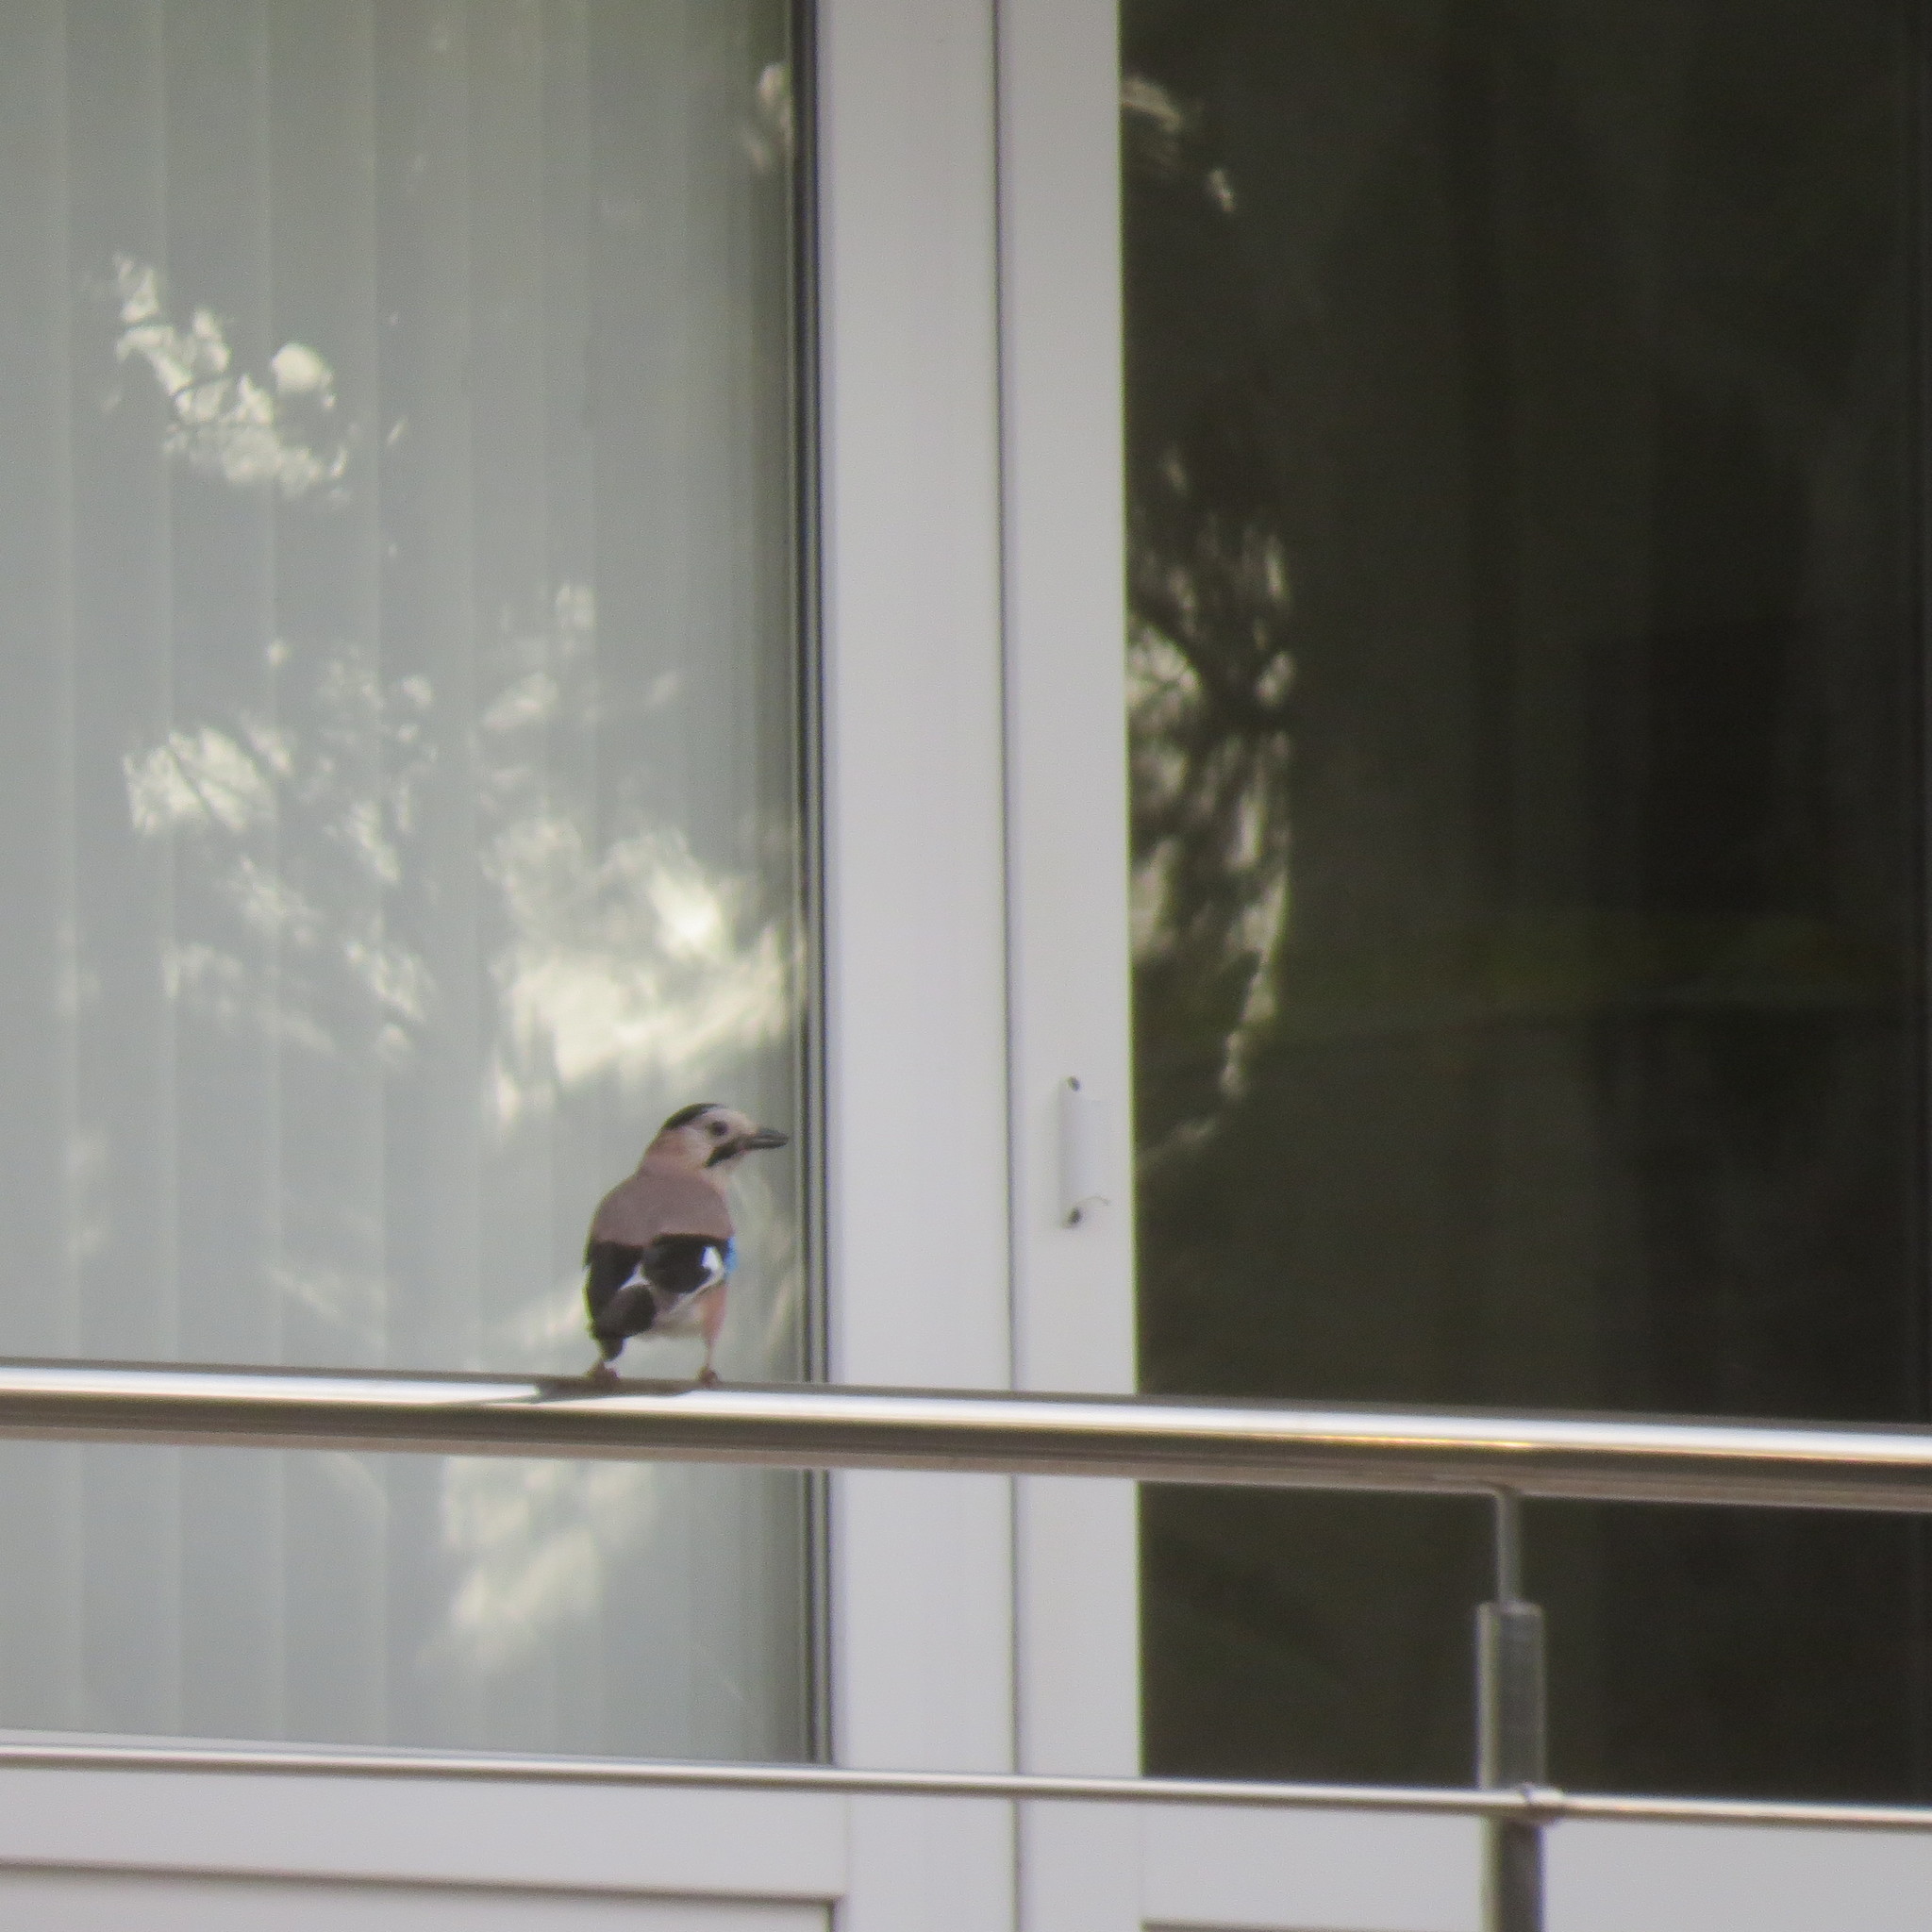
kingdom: Animalia
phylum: Chordata
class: Aves
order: Passeriformes
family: Corvidae
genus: Garrulus
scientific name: Garrulus glandarius
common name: Eurasian jay
